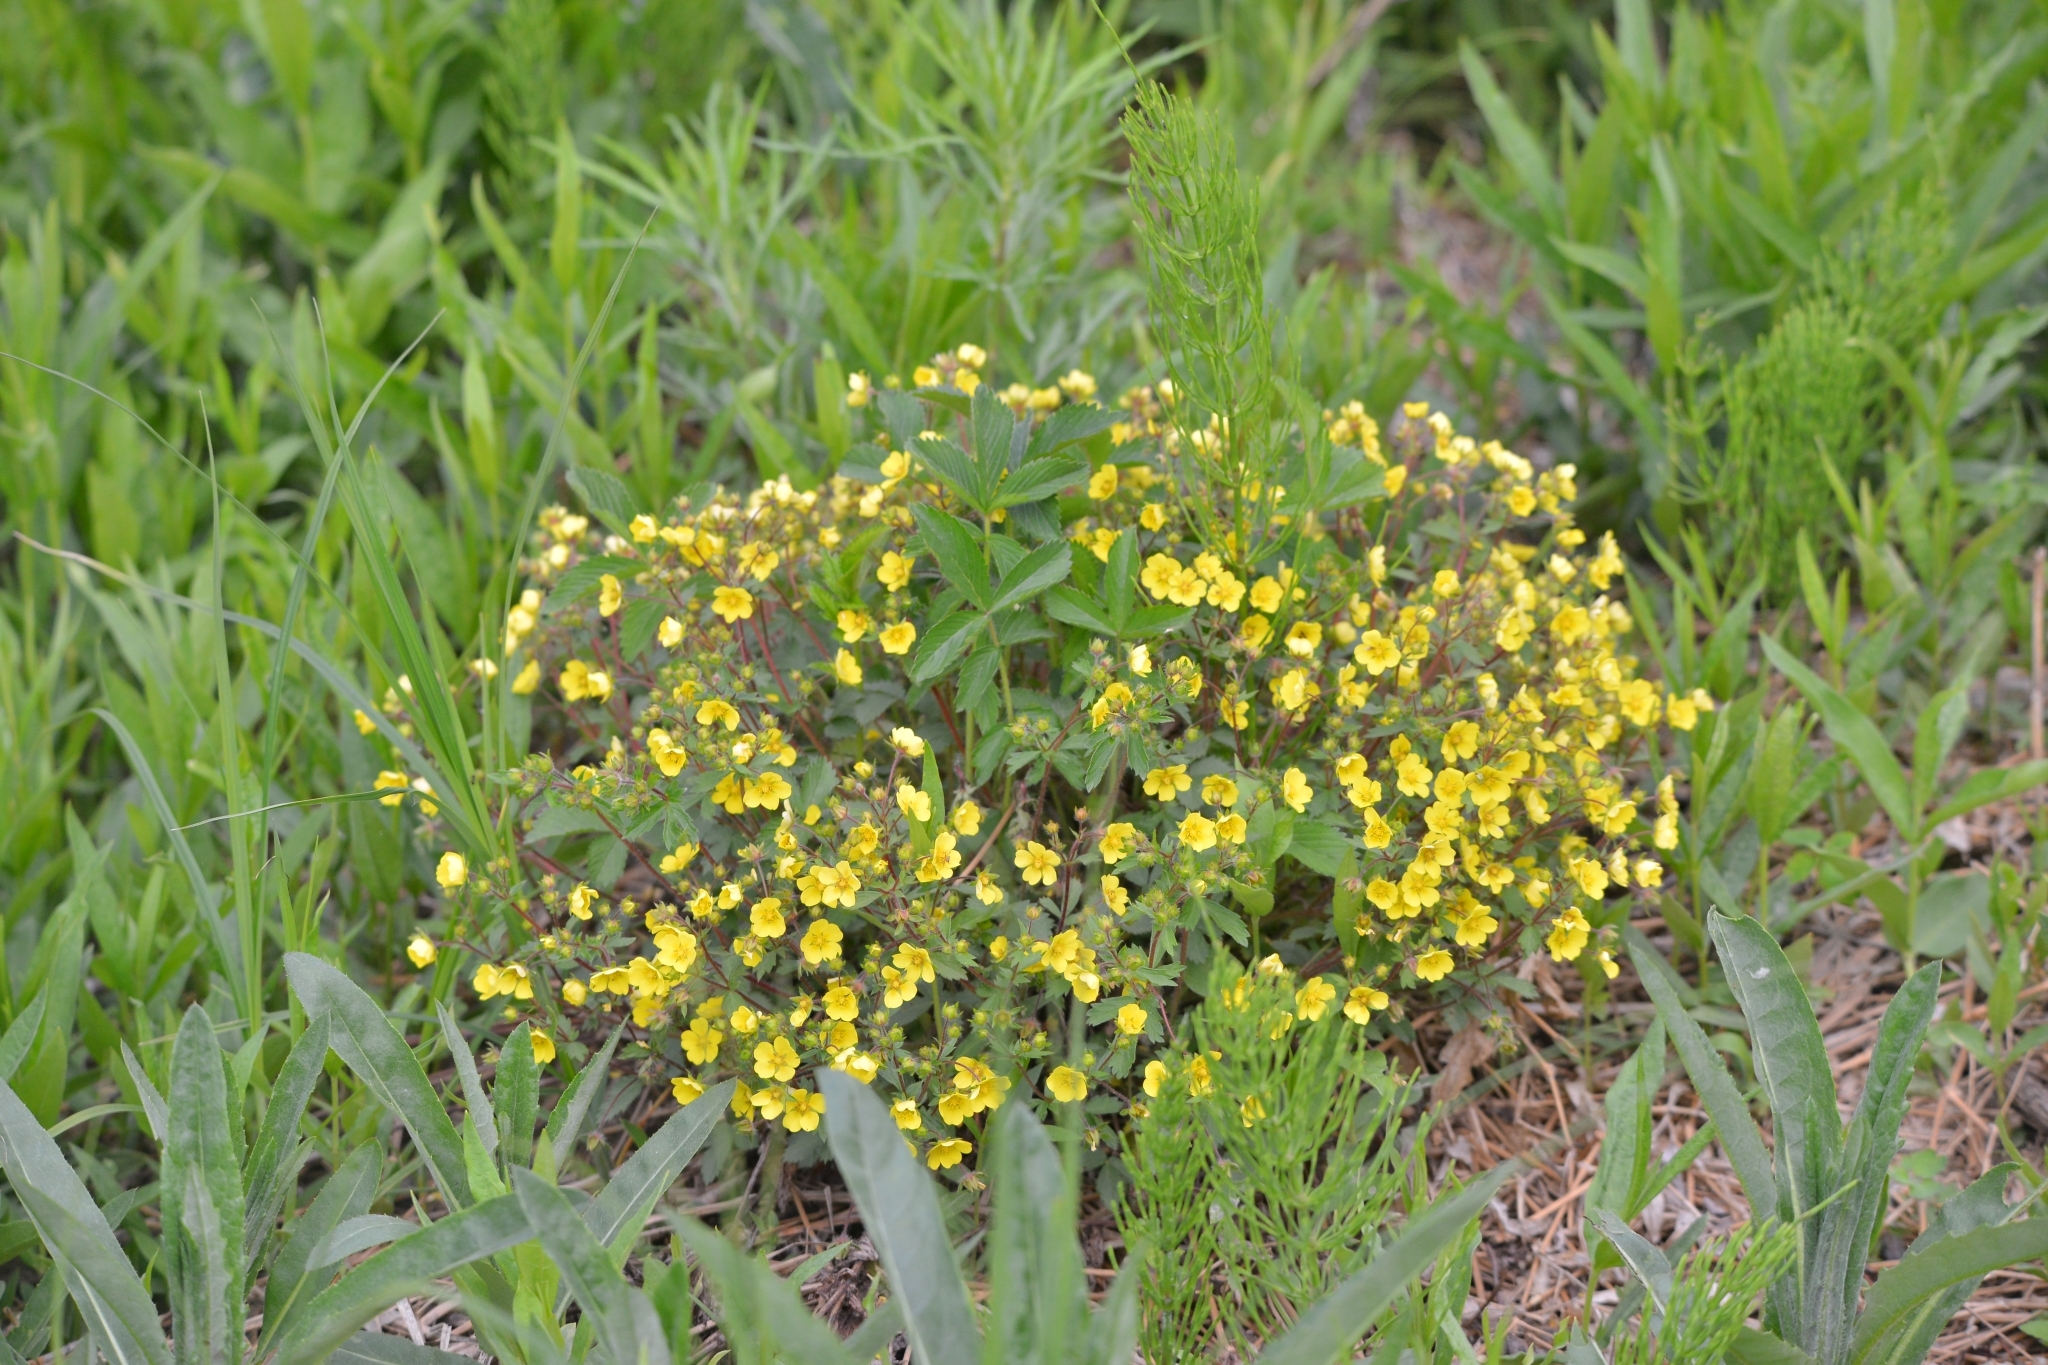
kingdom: Plantae
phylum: Tracheophyta
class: Magnoliopsida
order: Rosales
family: Rosaceae
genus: Potentilla
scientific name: Potentilla fragarioides
